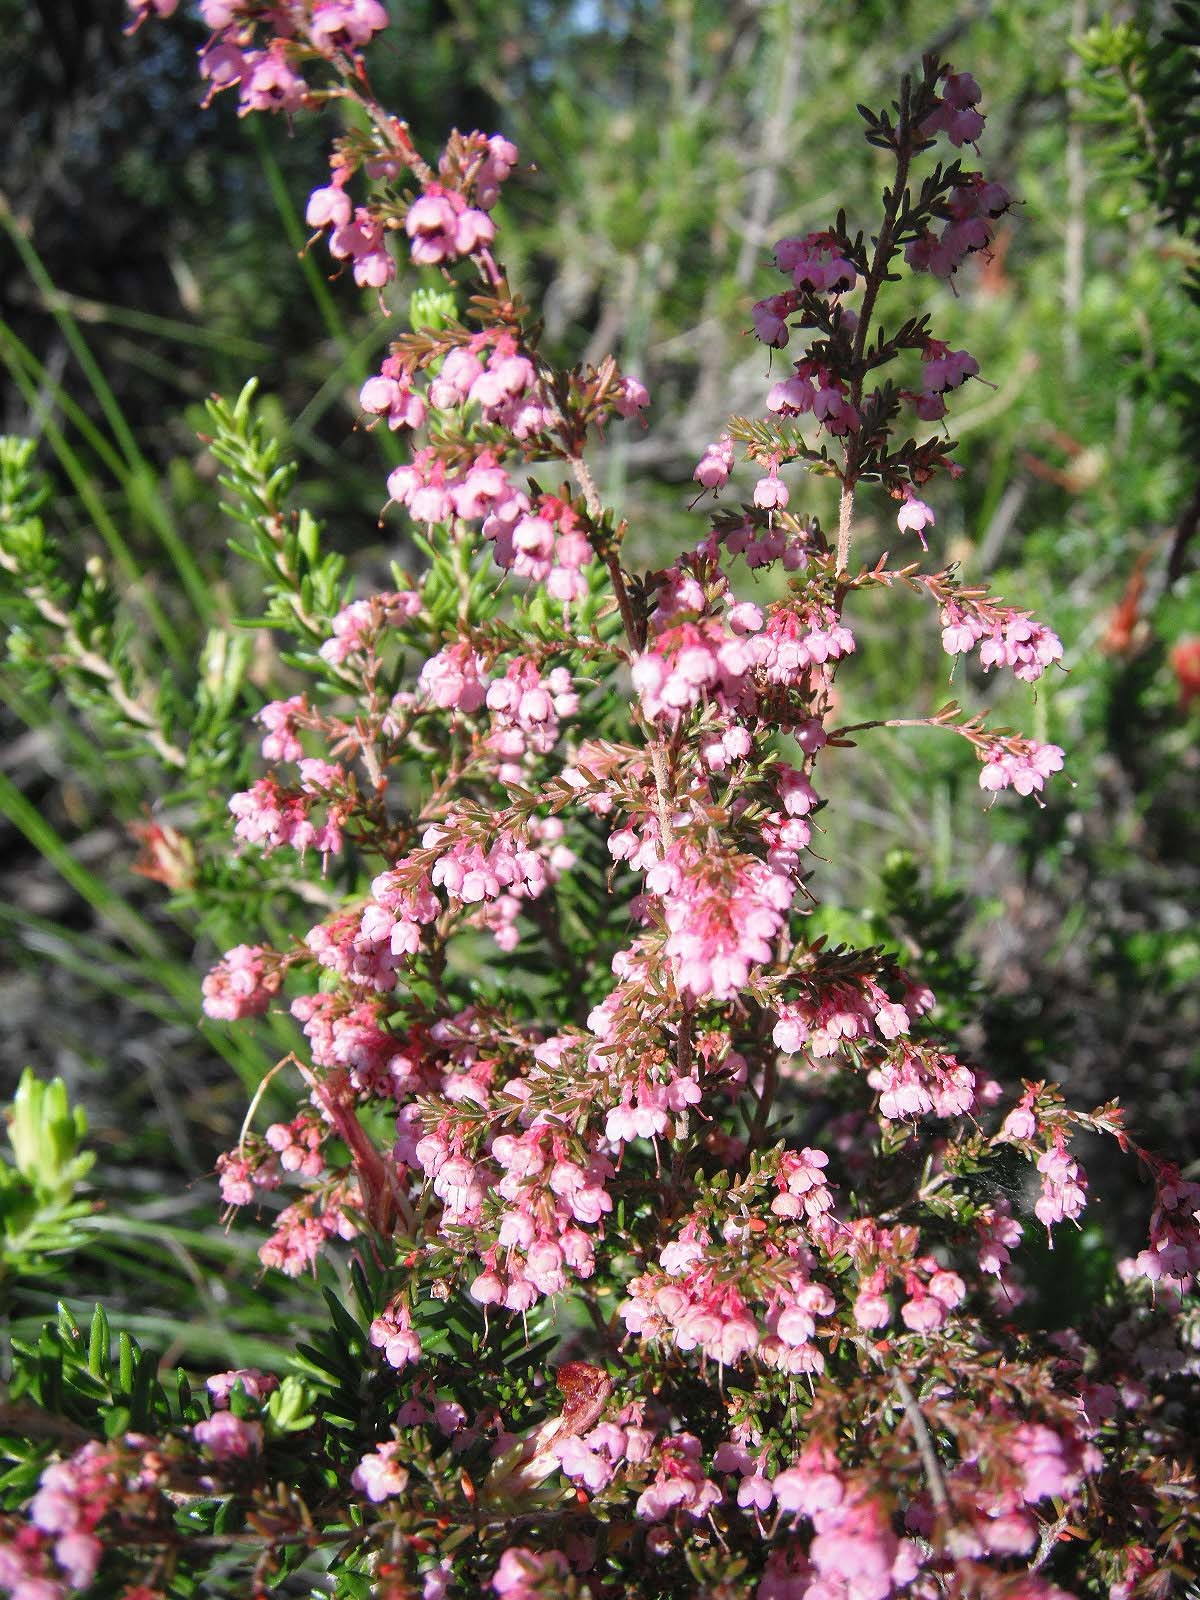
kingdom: Plantae
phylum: Tracheophyta
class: Magnoliopsida
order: Ericales
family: Ericaceae
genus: Erica
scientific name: Erica canaliculata
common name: Hairy grey heather
